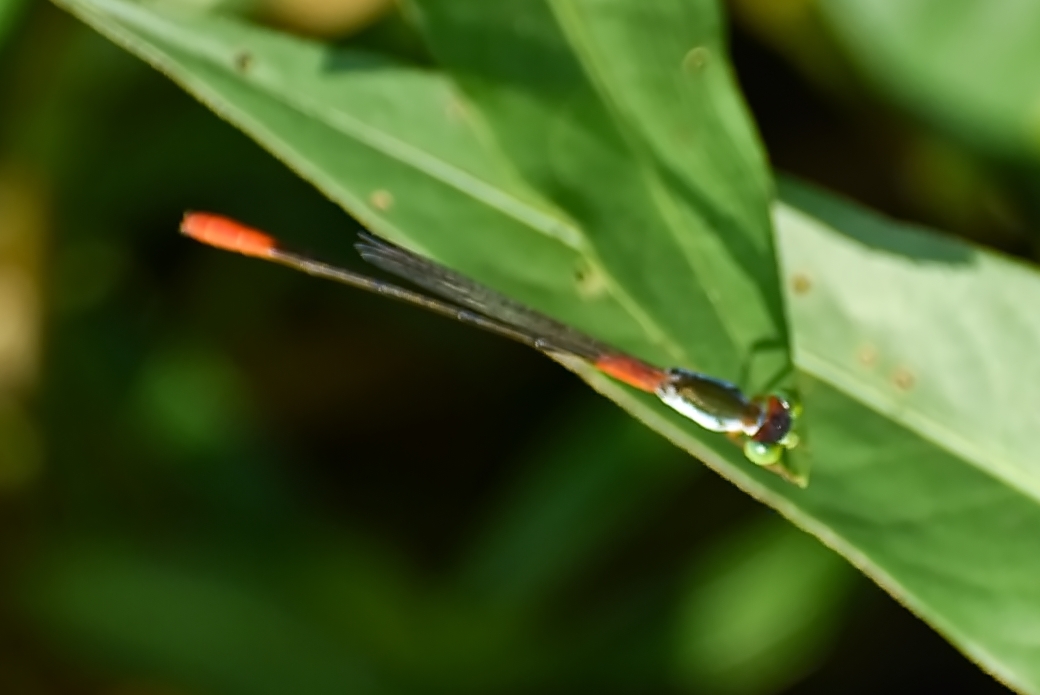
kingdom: Animalia
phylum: Arthropoda
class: Insecta
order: Odonata
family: Coenagrionidae
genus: Ceriagrion
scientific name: Ceriagrion cerinorubellum
